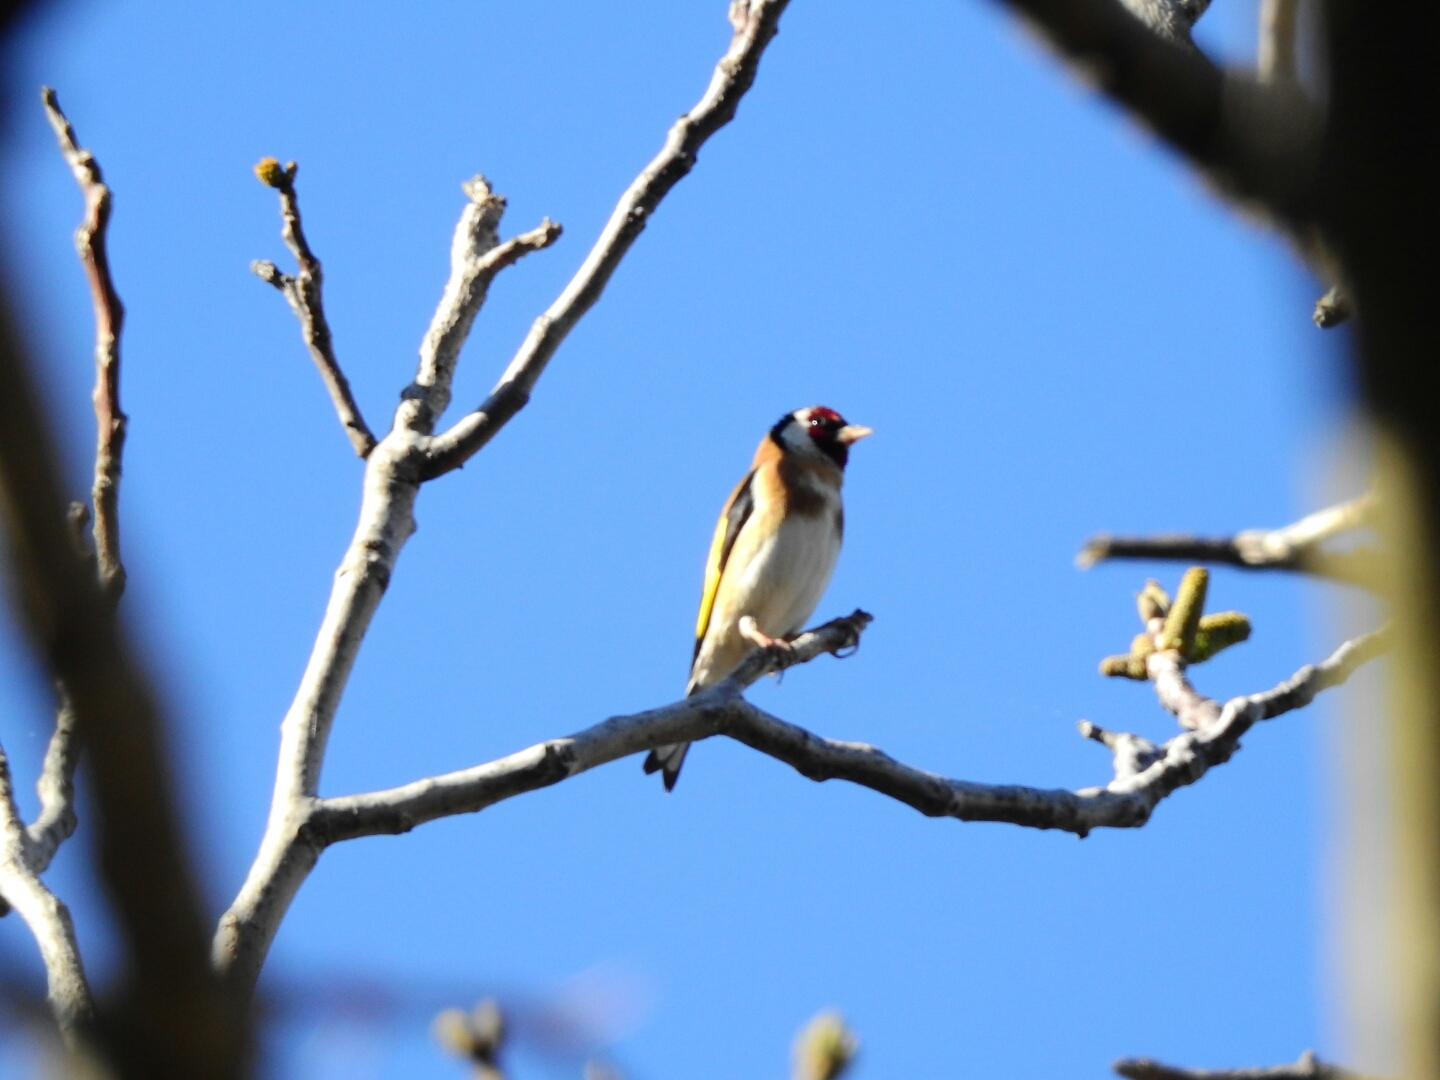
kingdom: Animalia
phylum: Chordata
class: Aves
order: Passeriformes
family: Fringillidae
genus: Carduelis
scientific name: Carduelis carduelis
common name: European goldfinch
